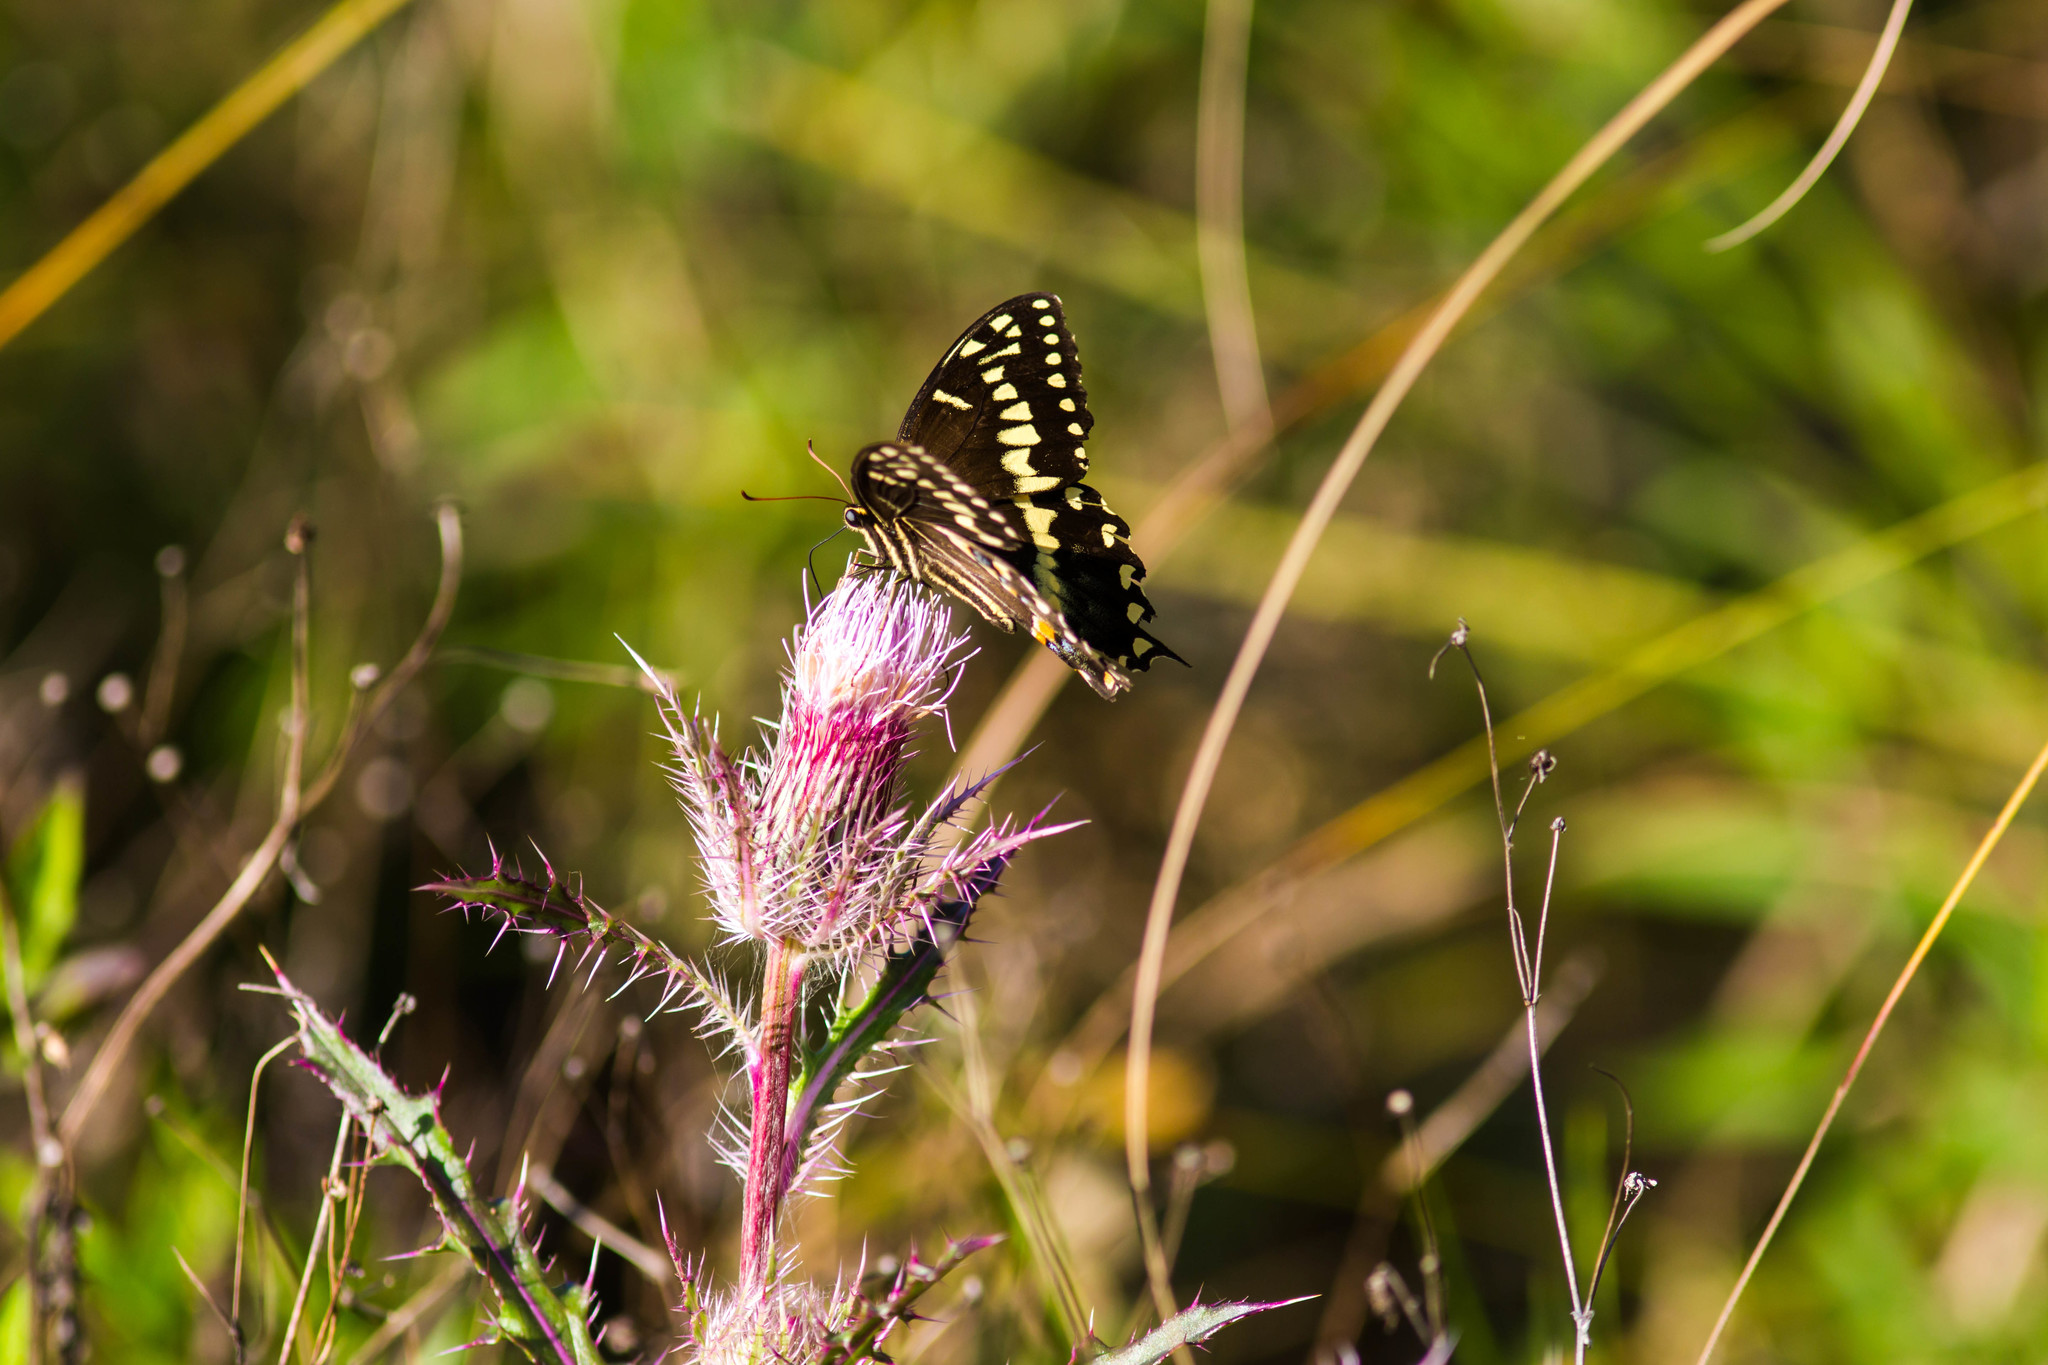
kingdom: Animalia
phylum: Arthropoda
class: Insecta
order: Lepidoptera
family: Papilionidae
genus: Papilio
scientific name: Papilio palamedes
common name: Palamedes swallowtail
